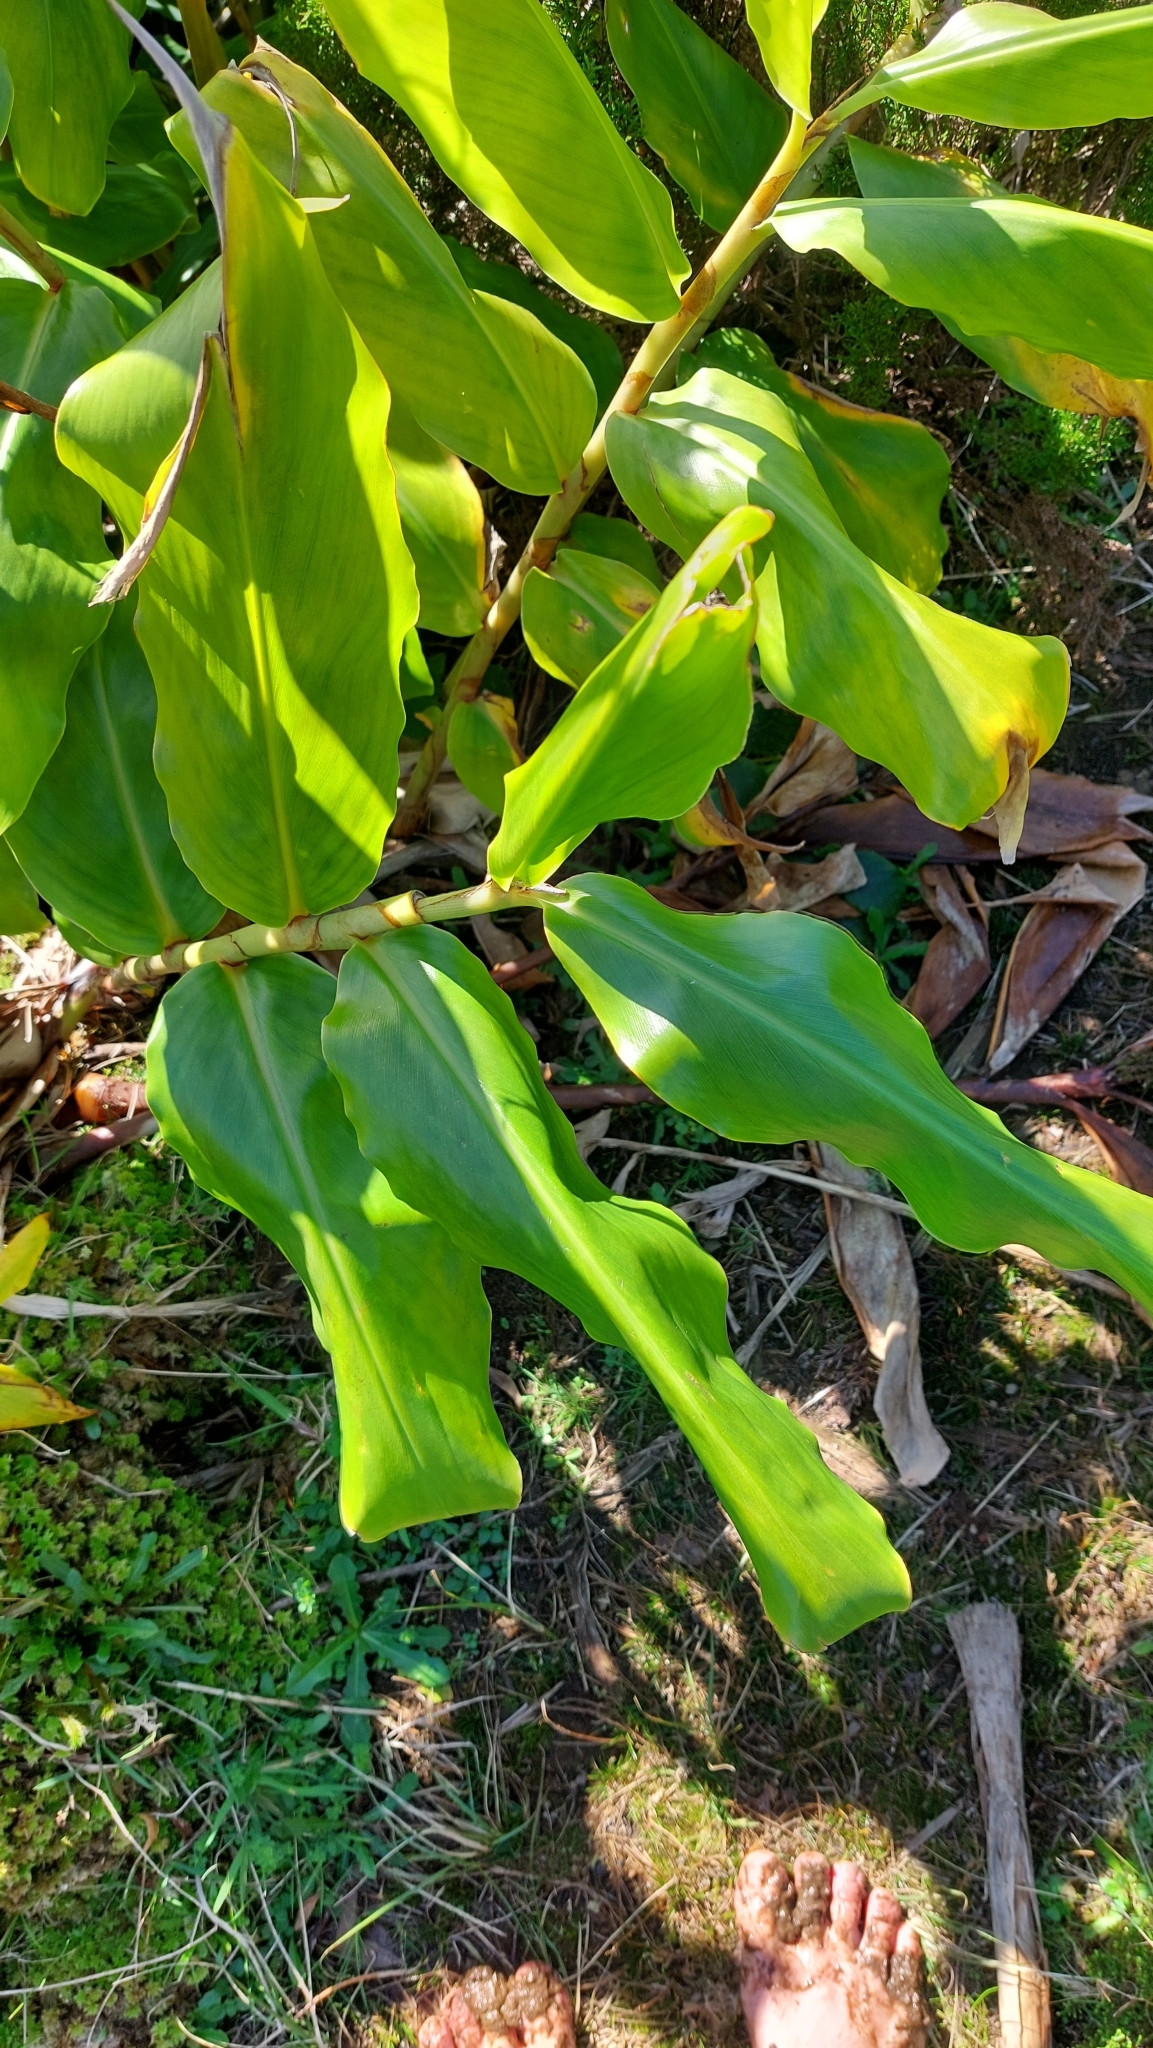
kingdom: Plantae
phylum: Tracheophyta
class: Liliopsida
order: Zingiberales
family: Zingiberaceae
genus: Hedychium
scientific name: Hedychium gardnerianum
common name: Himalayan ginger
